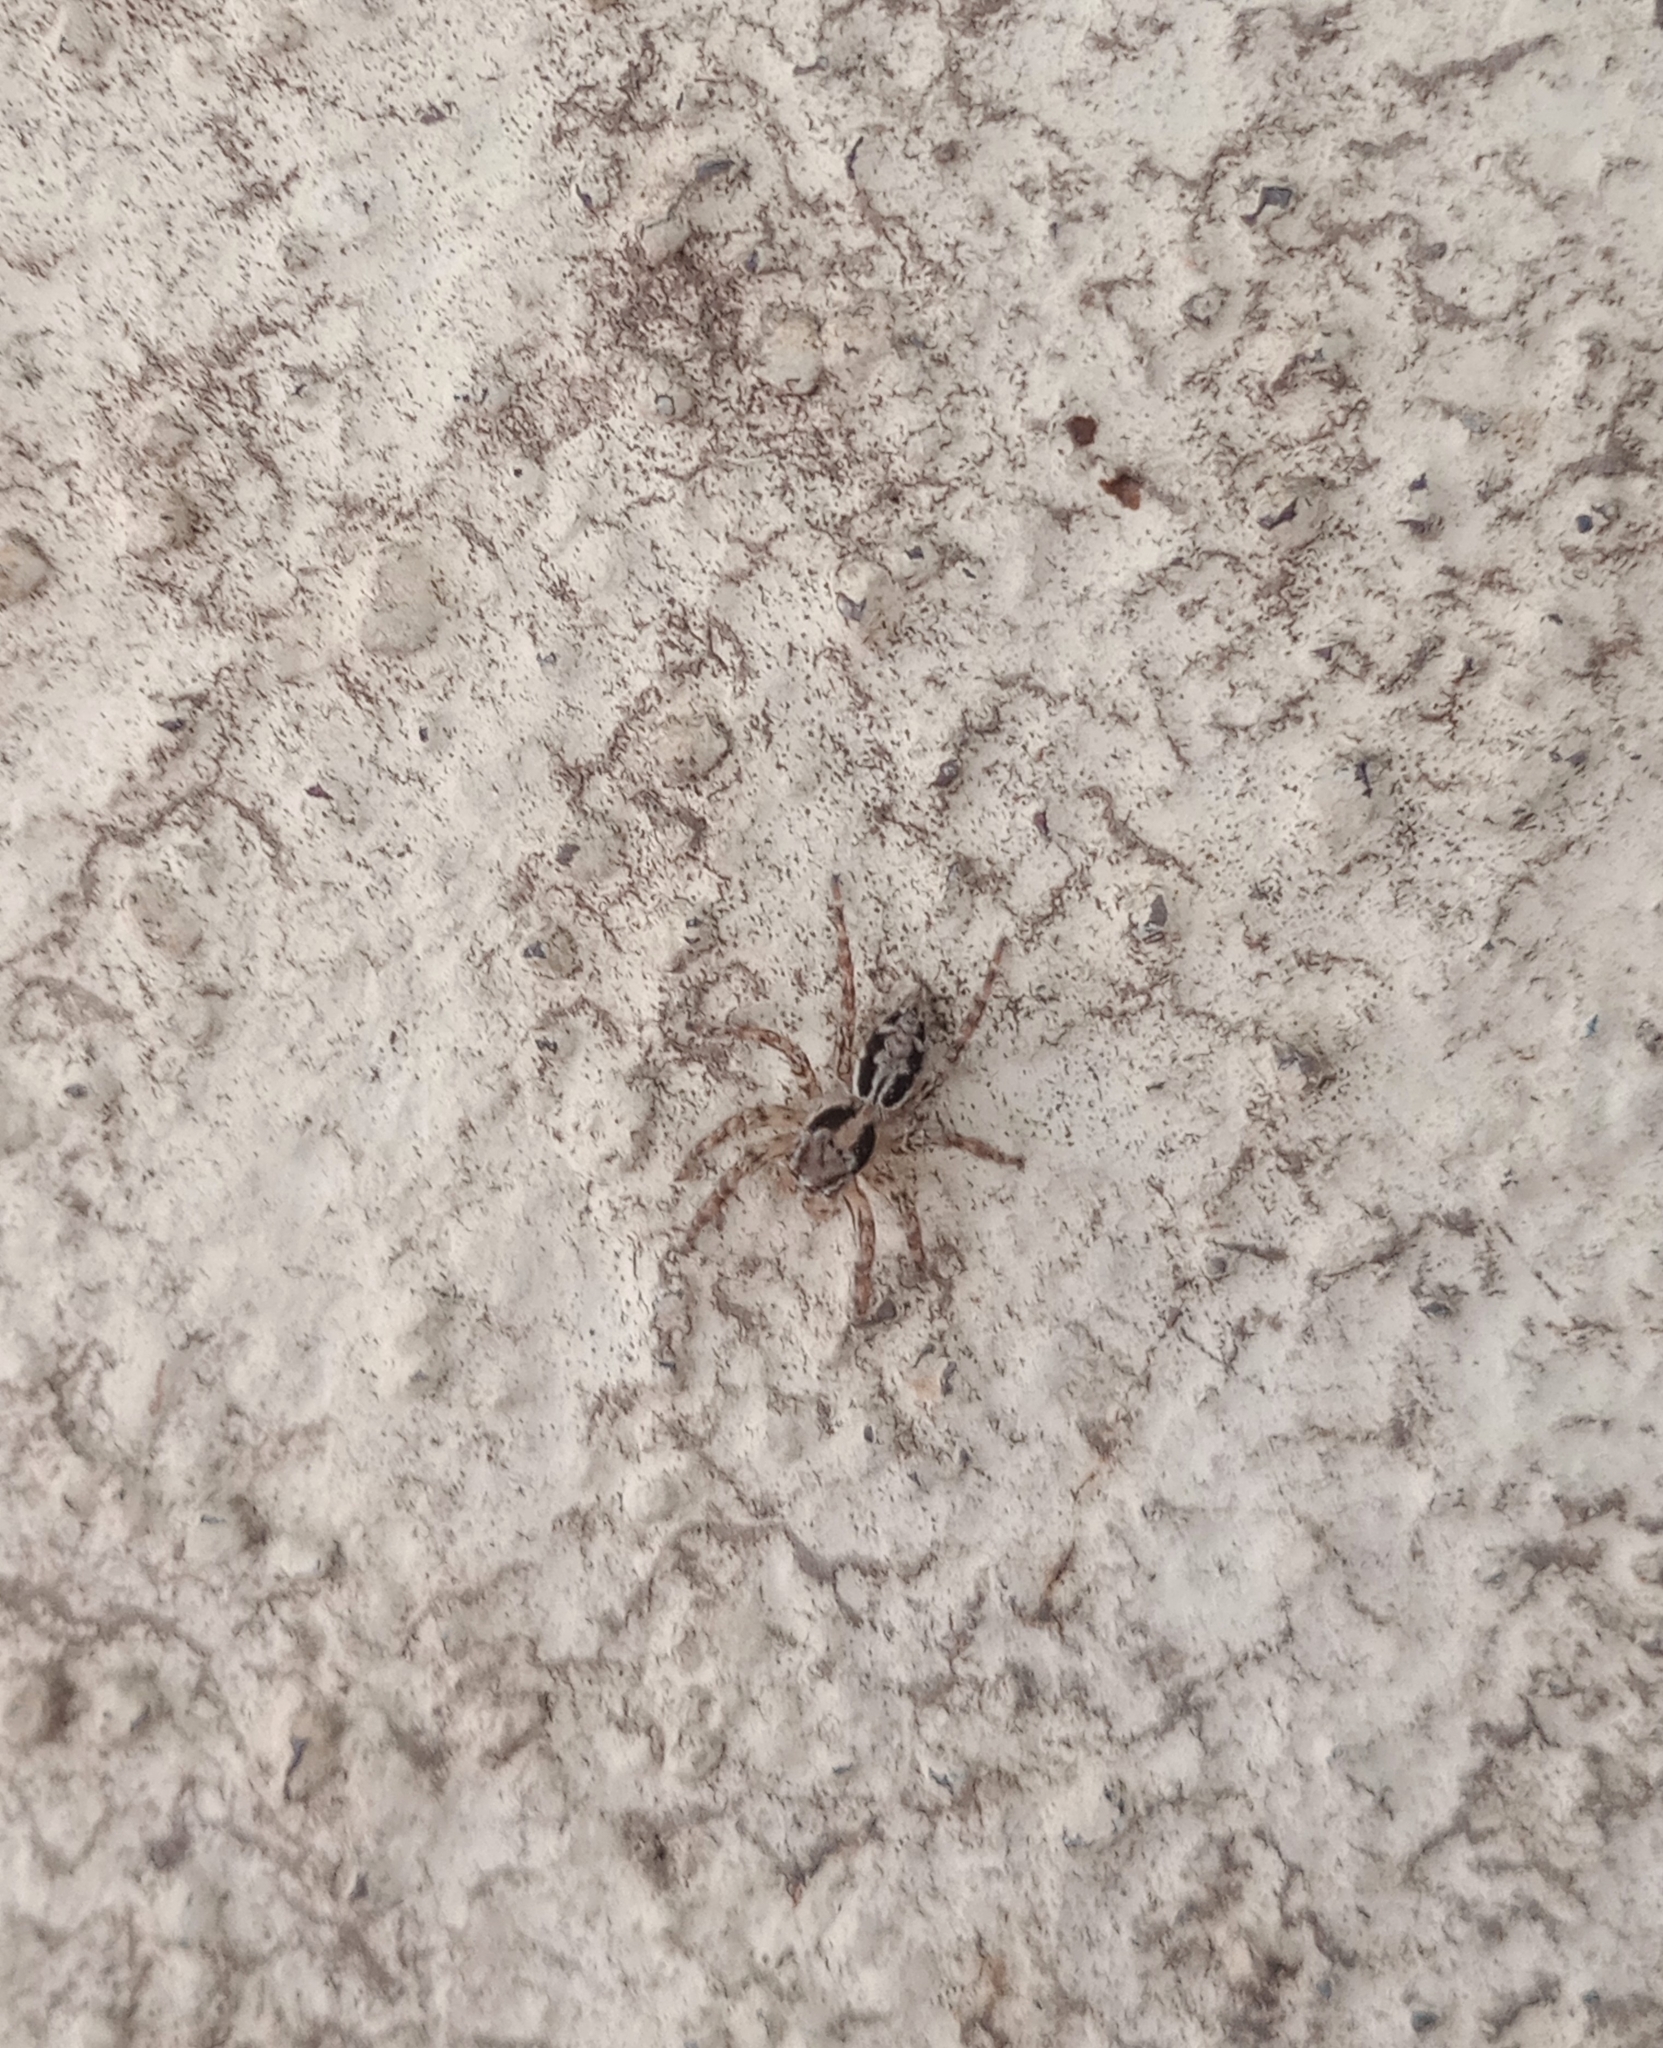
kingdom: Animalia
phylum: Arthropoda
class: Arachnida
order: Araneae
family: Salticidae
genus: Plexippus
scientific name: Plexippus petersi
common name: Jumping spider
